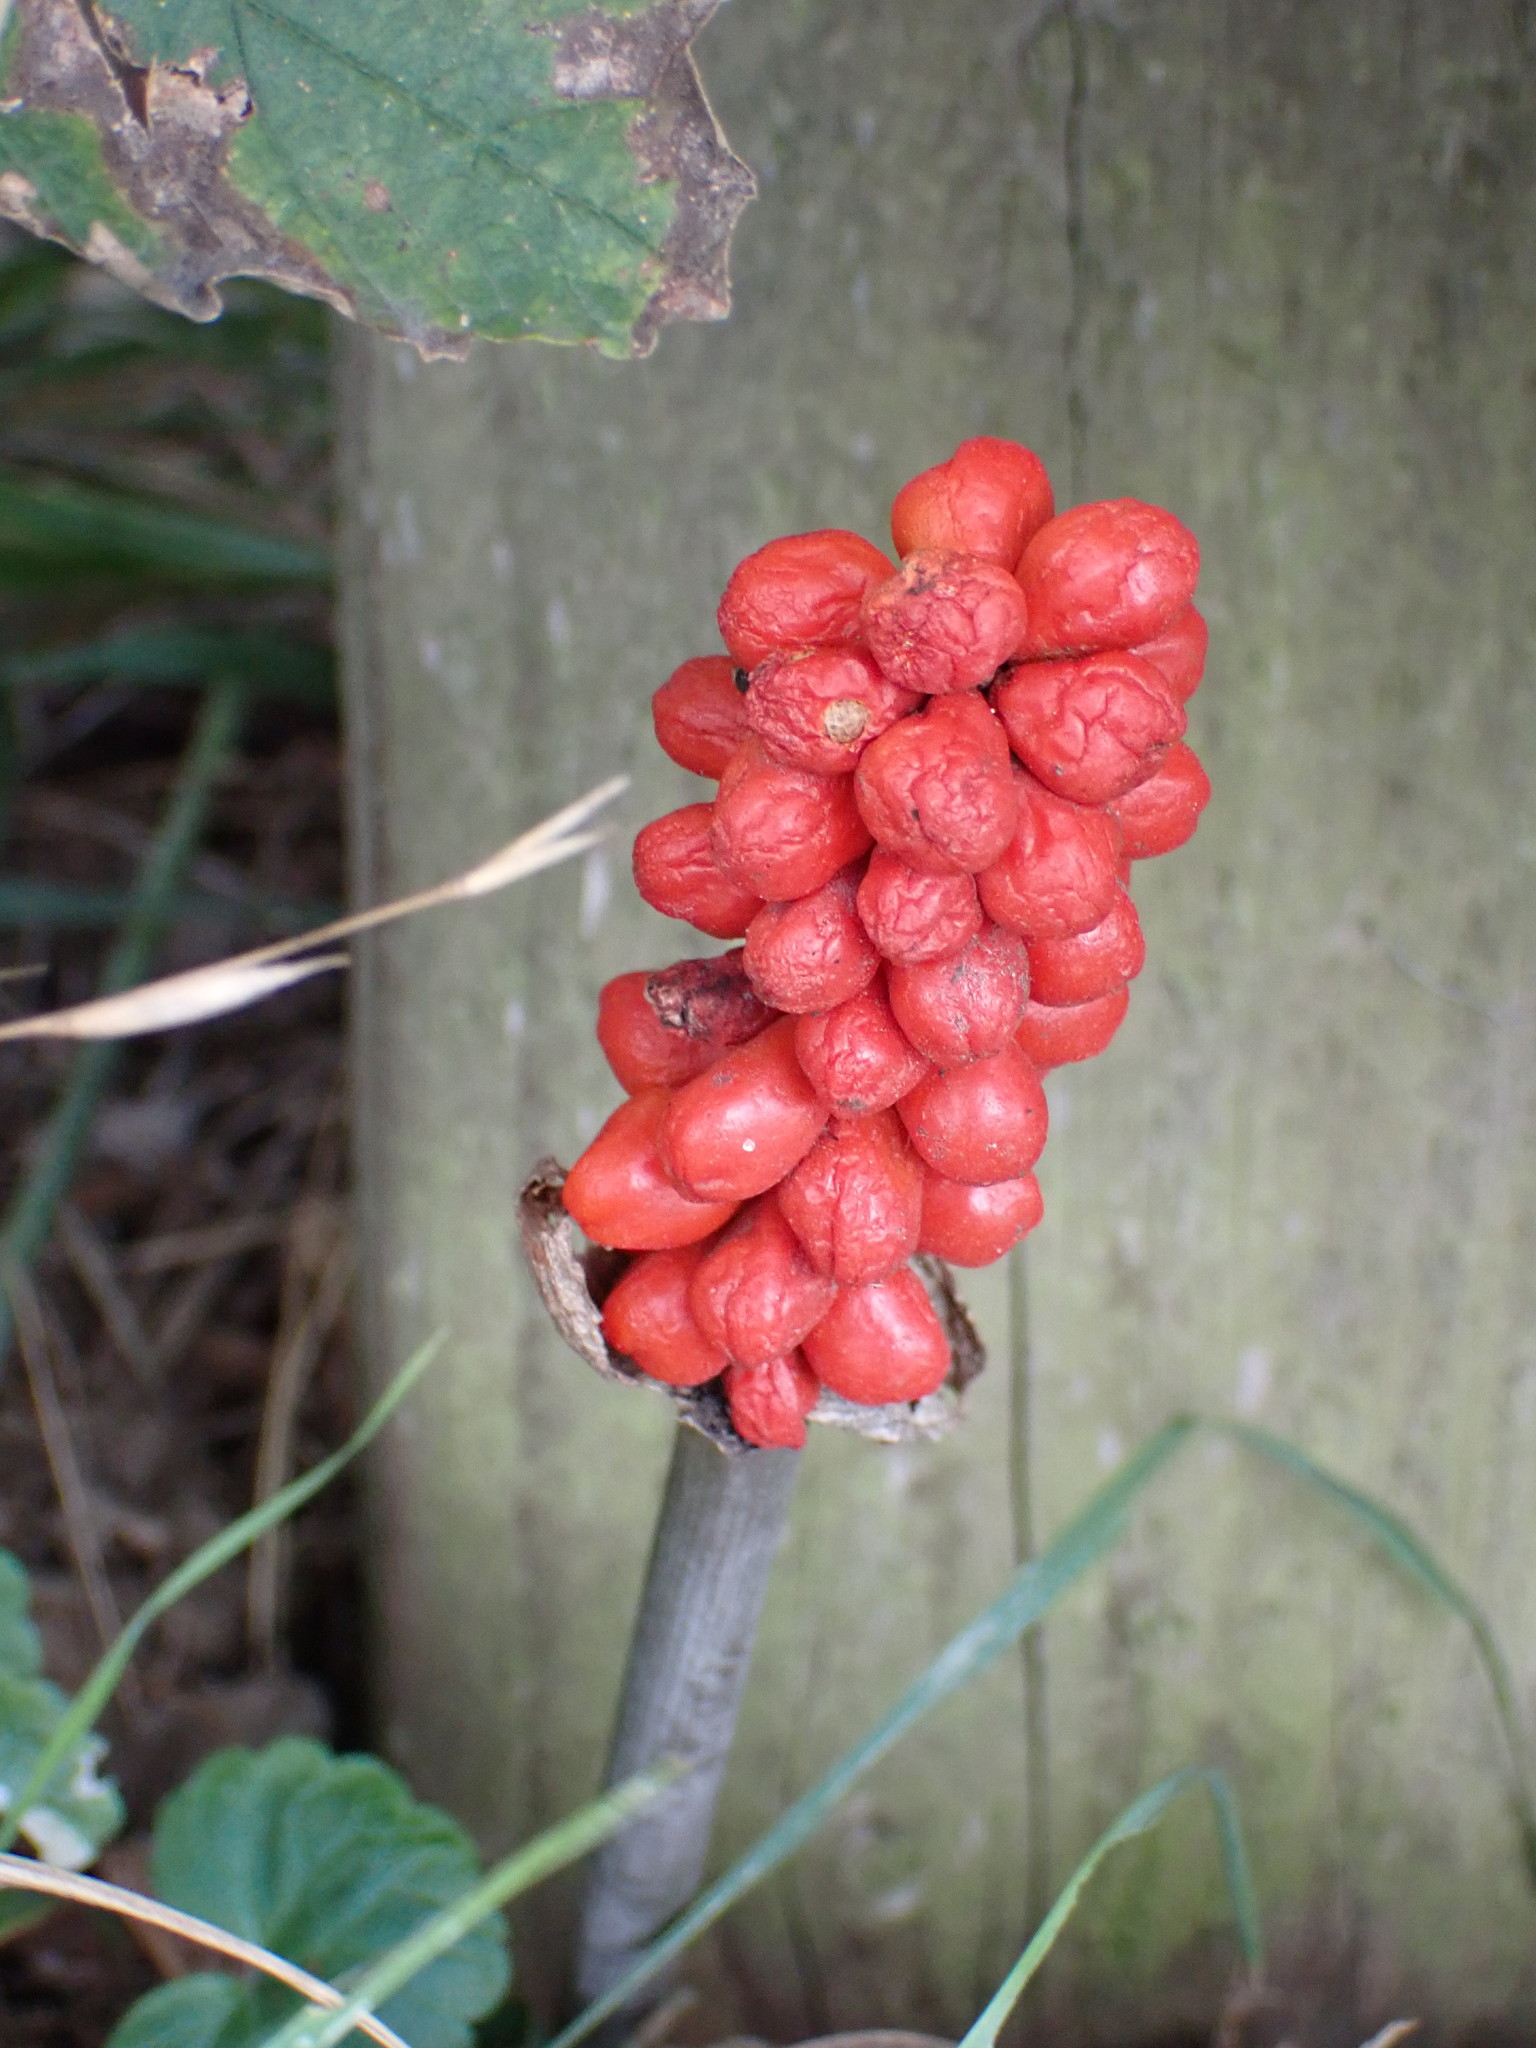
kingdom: Plantae
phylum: Tracheophyta
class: Liliopsida
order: Alismatales
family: Araceae
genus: Arum
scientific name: Arum maculatum
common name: Lords-and-ladies
